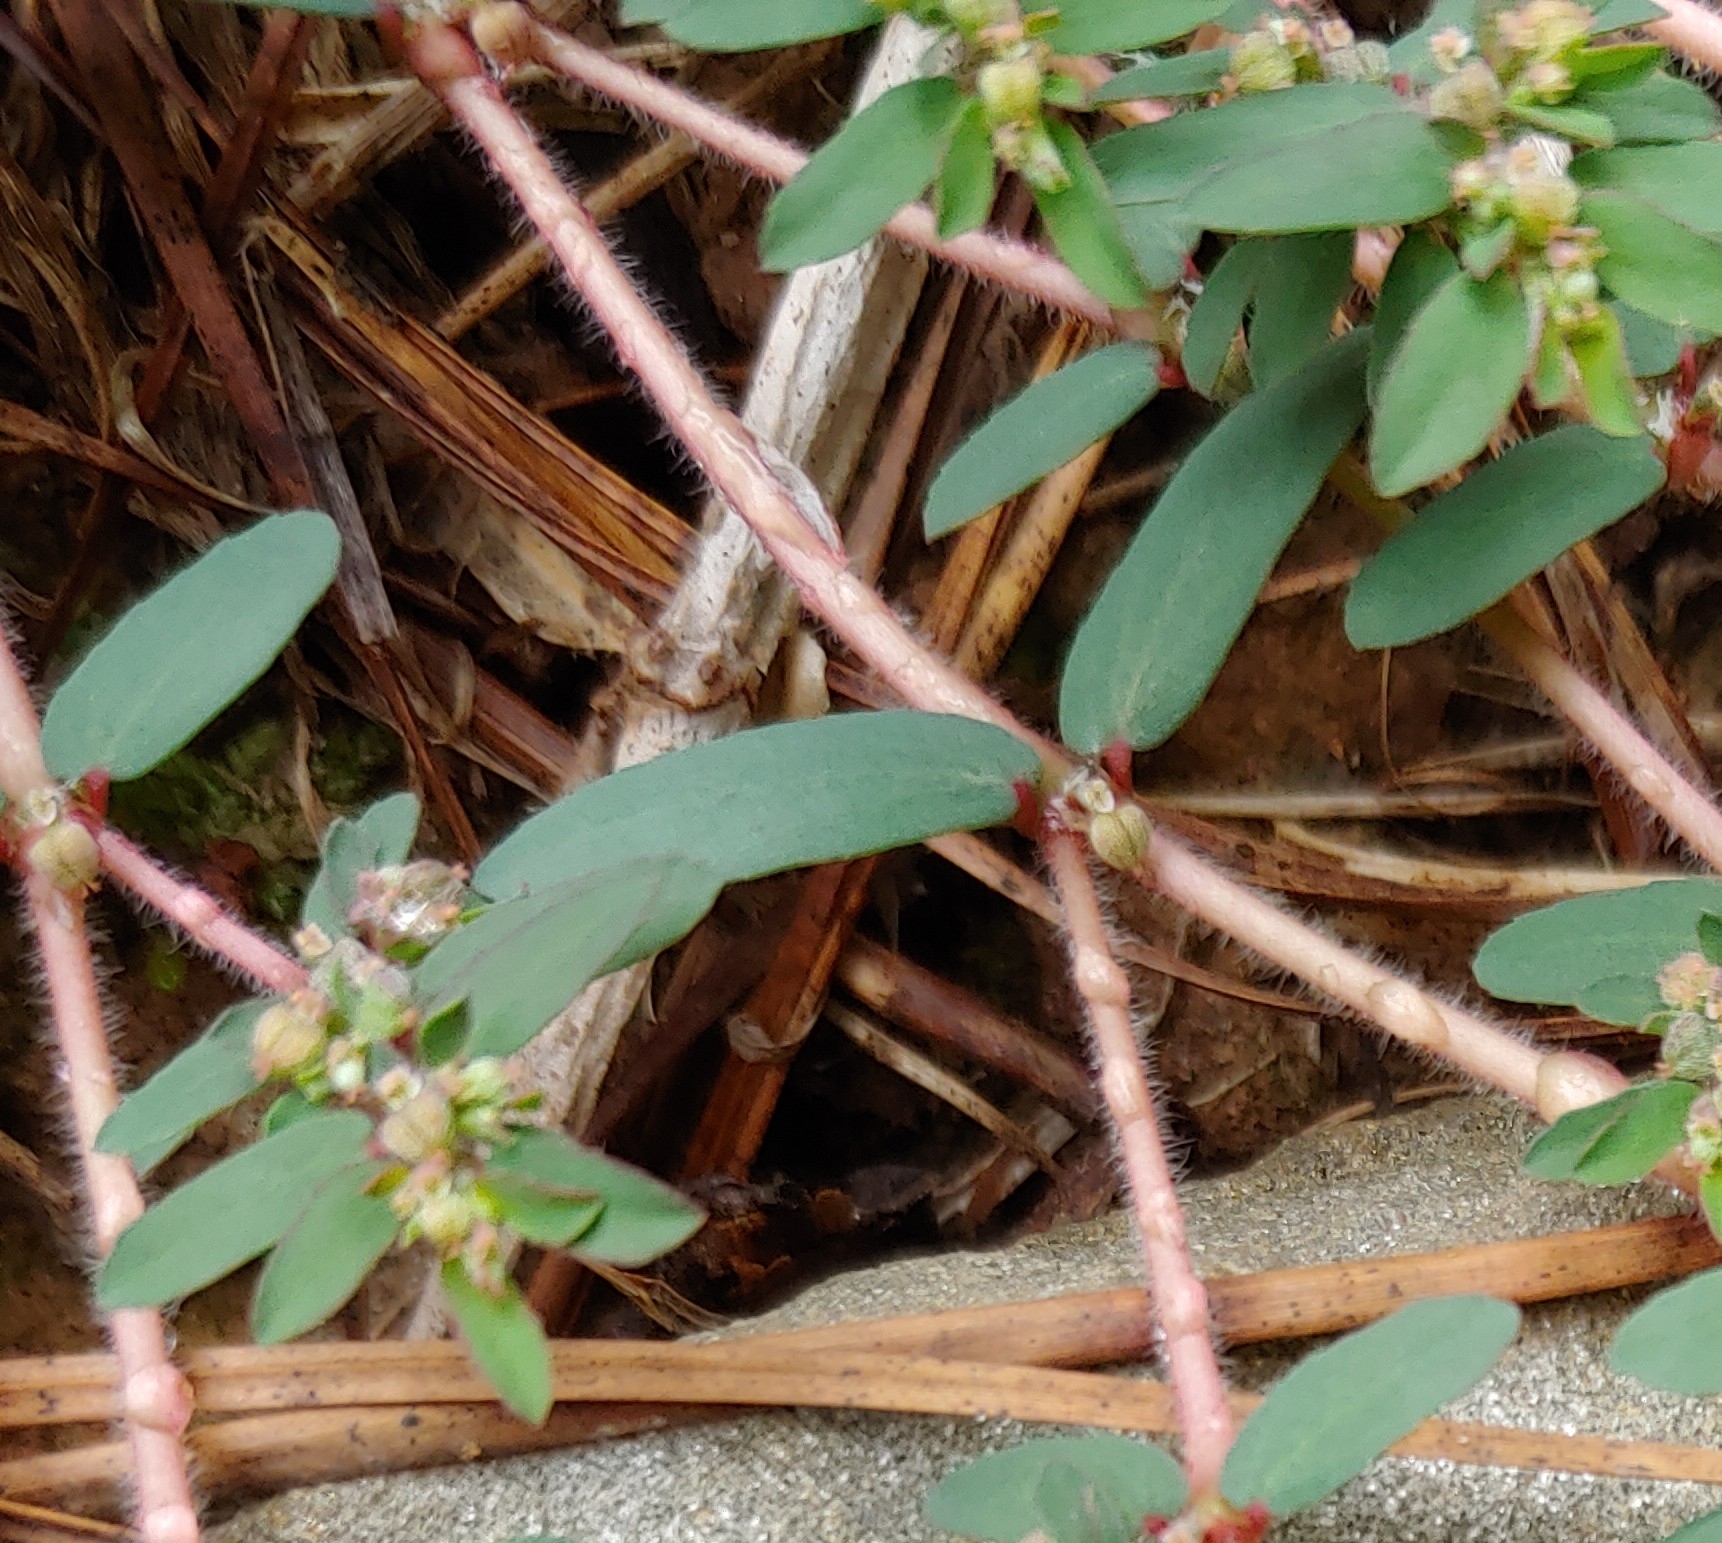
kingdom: Plantae
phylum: Tracheophyta
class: Magnoliopsida
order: Malpighiales
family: Euphorbiaceae
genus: Euphorbia
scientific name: Euphorbia maculata
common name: Spotted spurge
